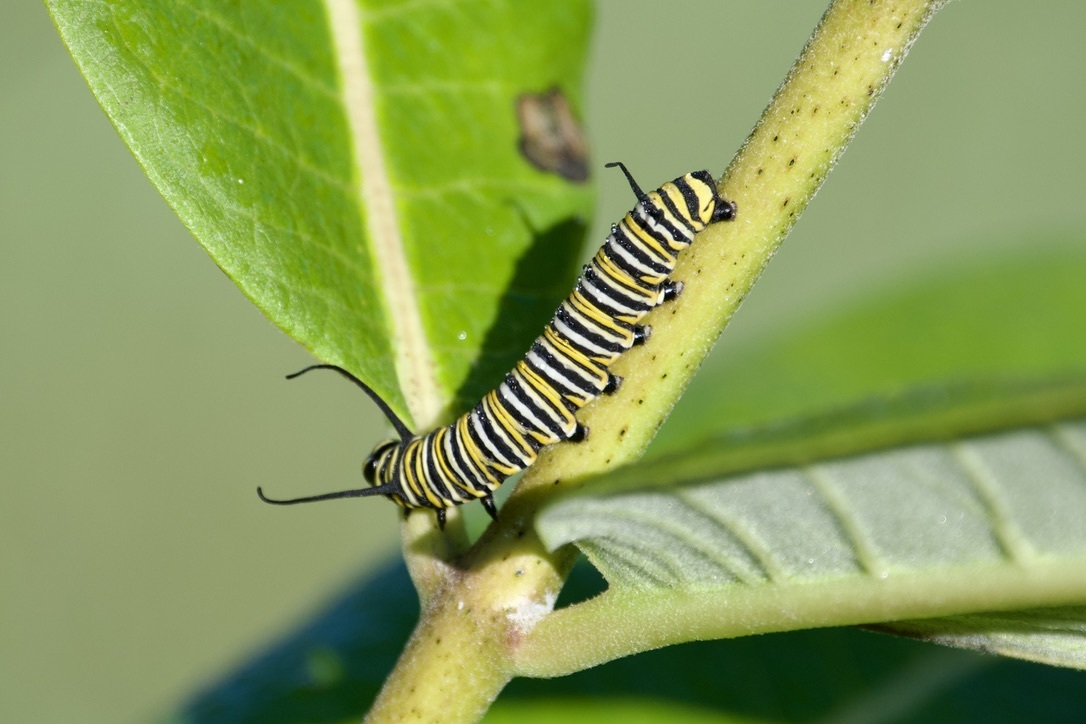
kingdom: Animalia
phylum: Arthropoda
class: Insecta
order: Lepidoptera
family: Nymphalidae
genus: Danaus
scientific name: Danaus plexippus
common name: Monarch
